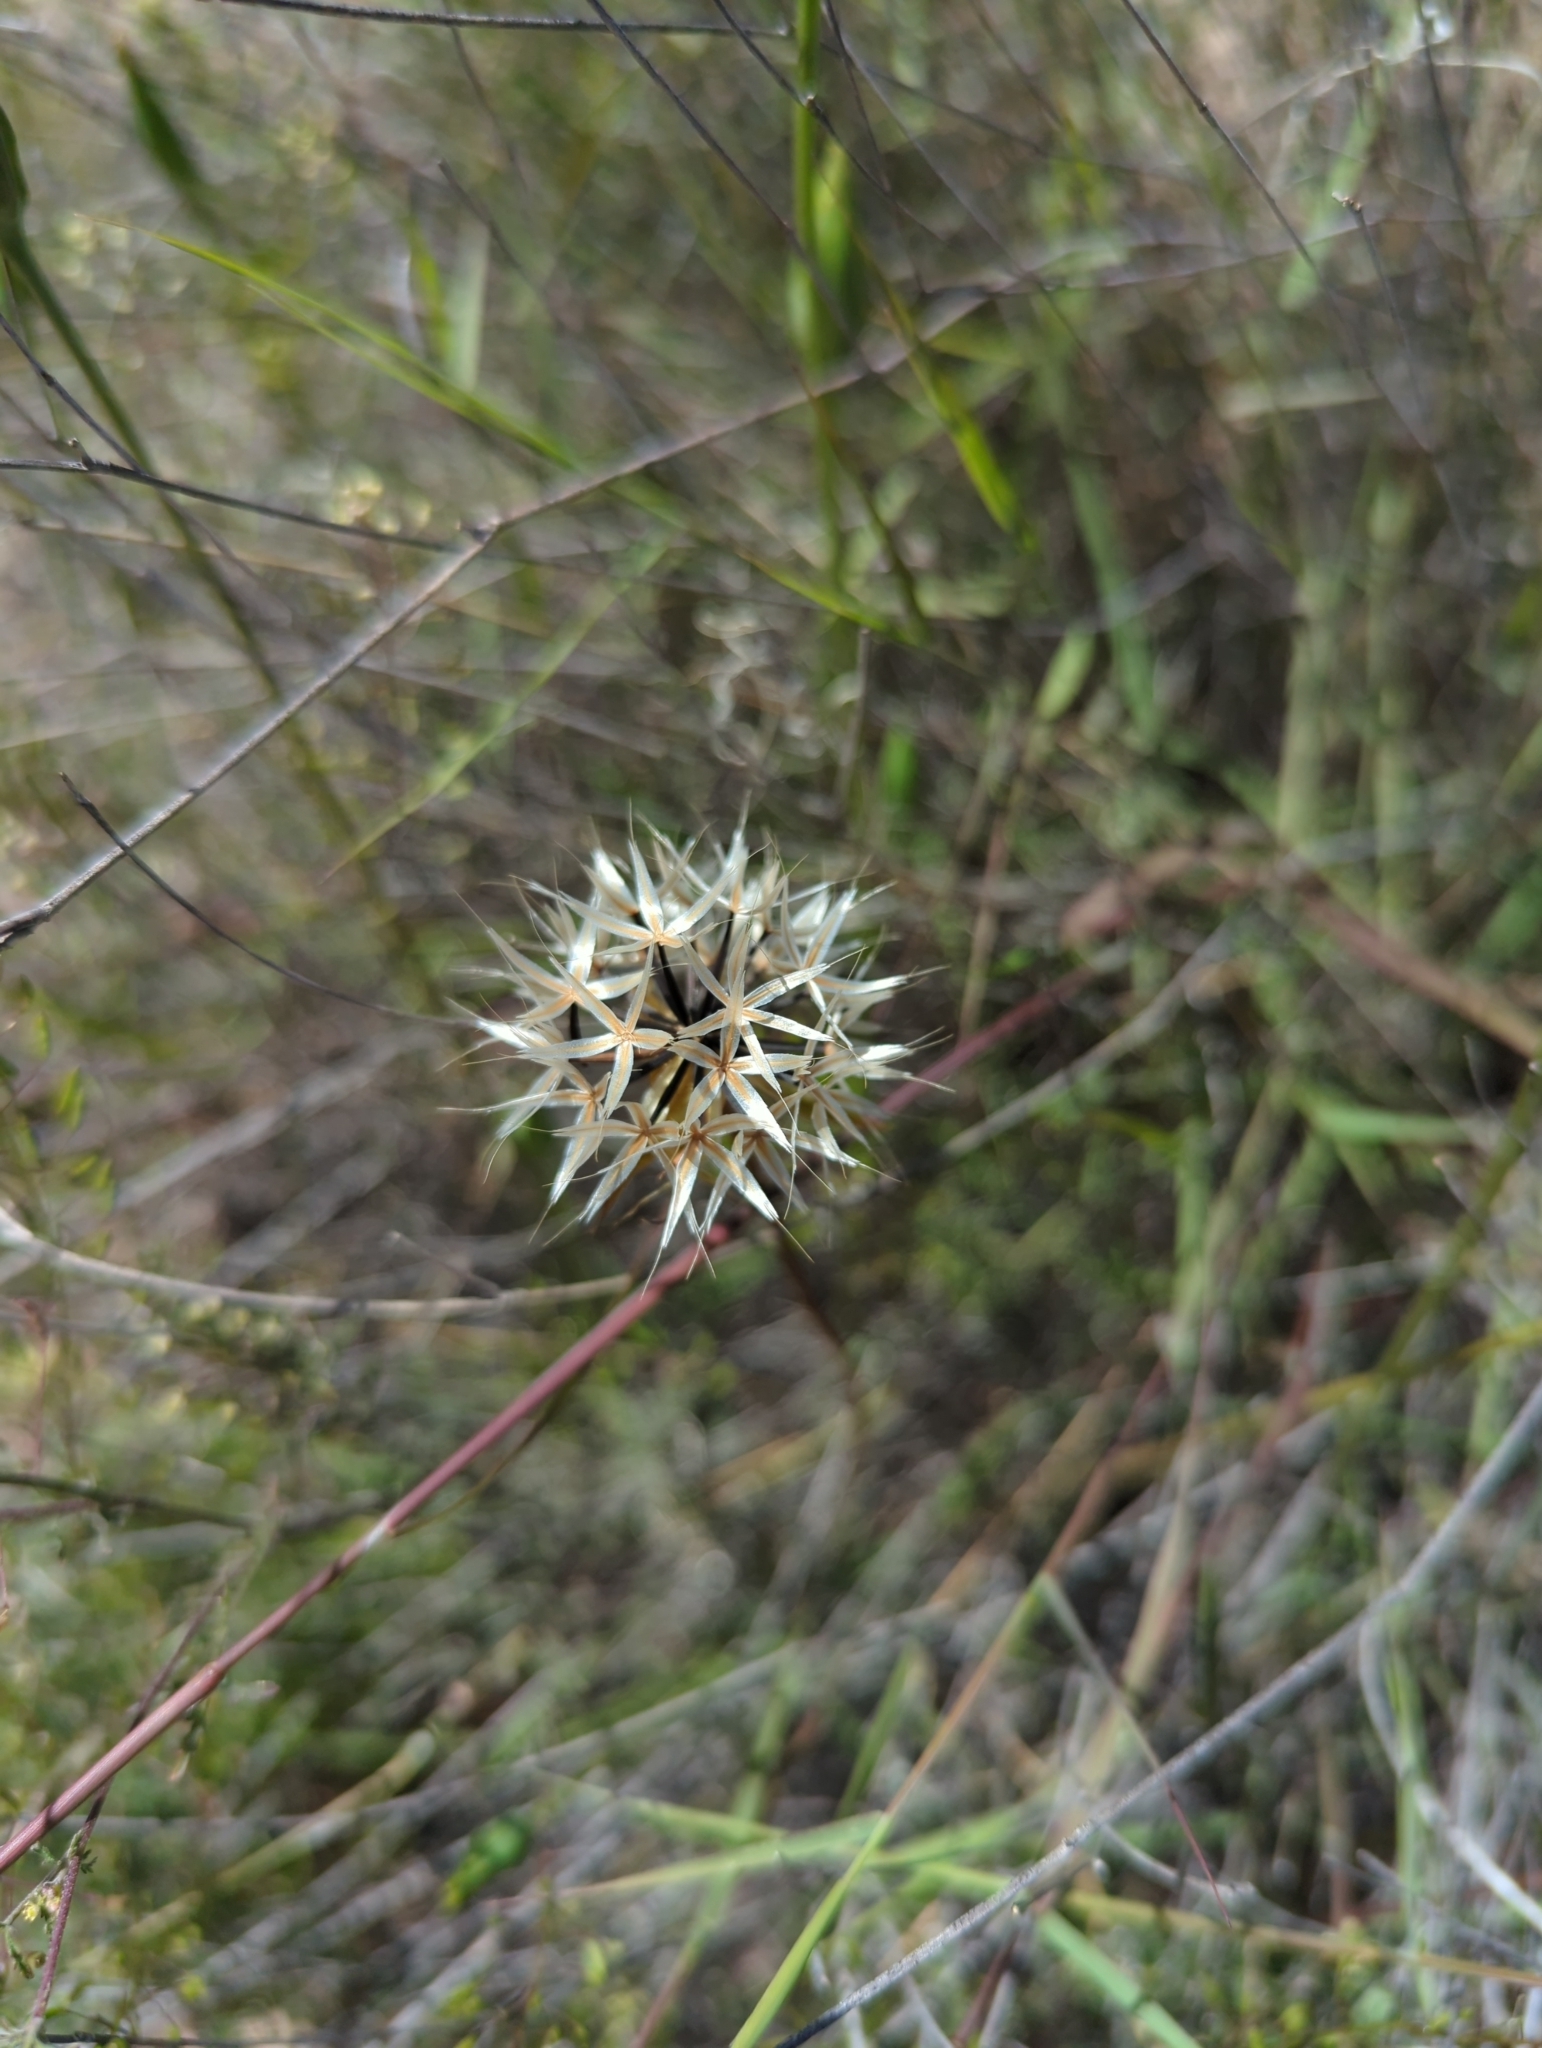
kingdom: Plantae
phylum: Tracheophyta
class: Magnoliopsida
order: Asterales
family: Asteraceae
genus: Microseris
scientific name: Microseris lindleyi
